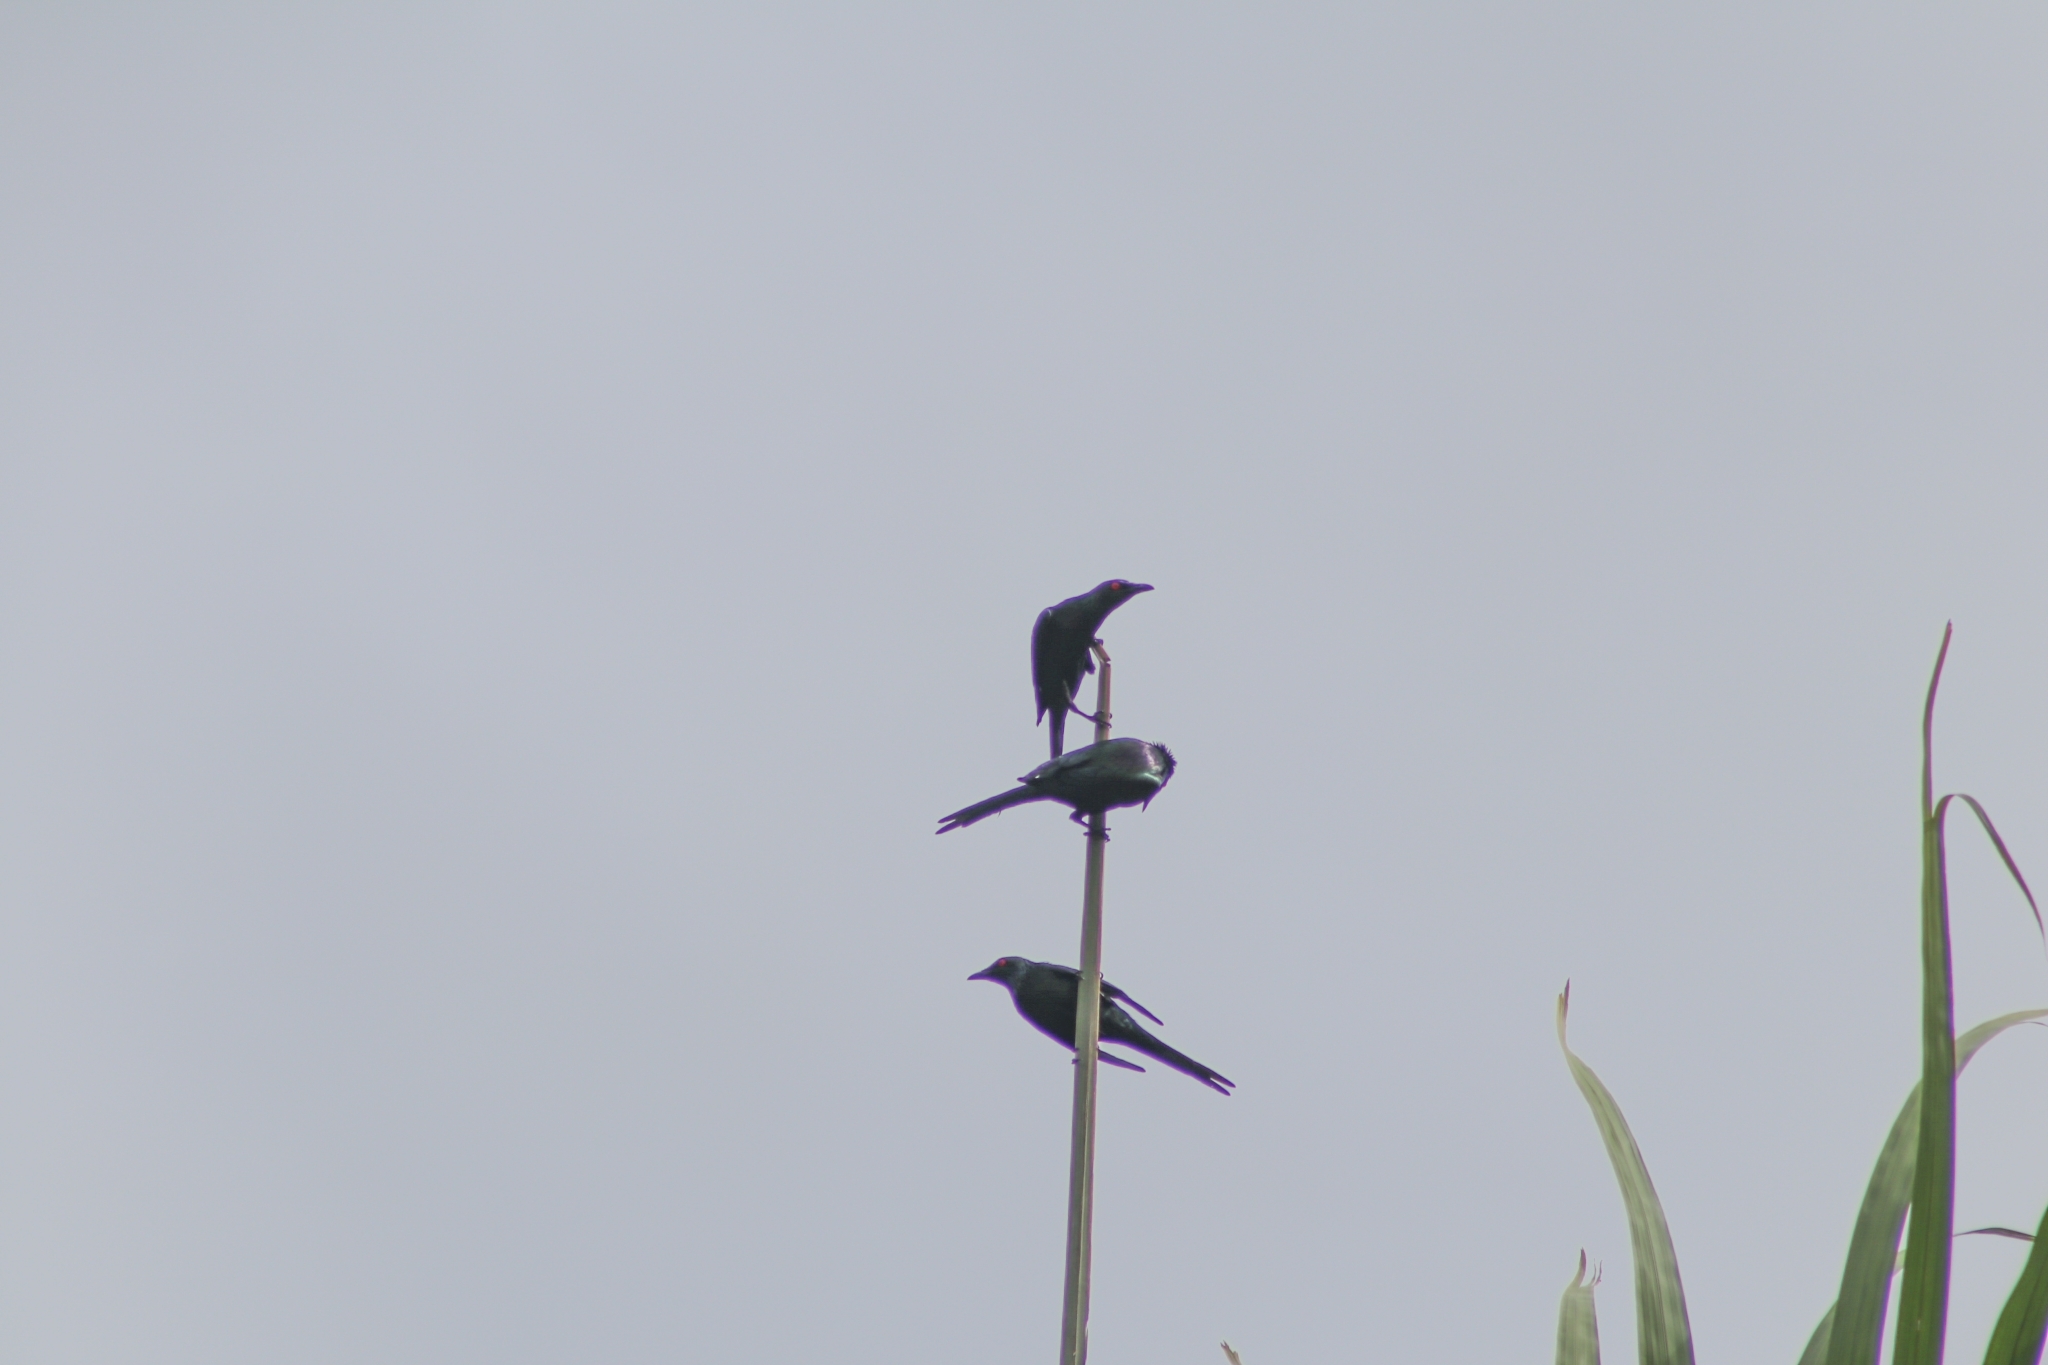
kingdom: Animalia
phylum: Chordata
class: Aves
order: Passeriformes
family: Sturnidae
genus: Aplonis
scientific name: Aplonis metallica
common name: Metallic starling
